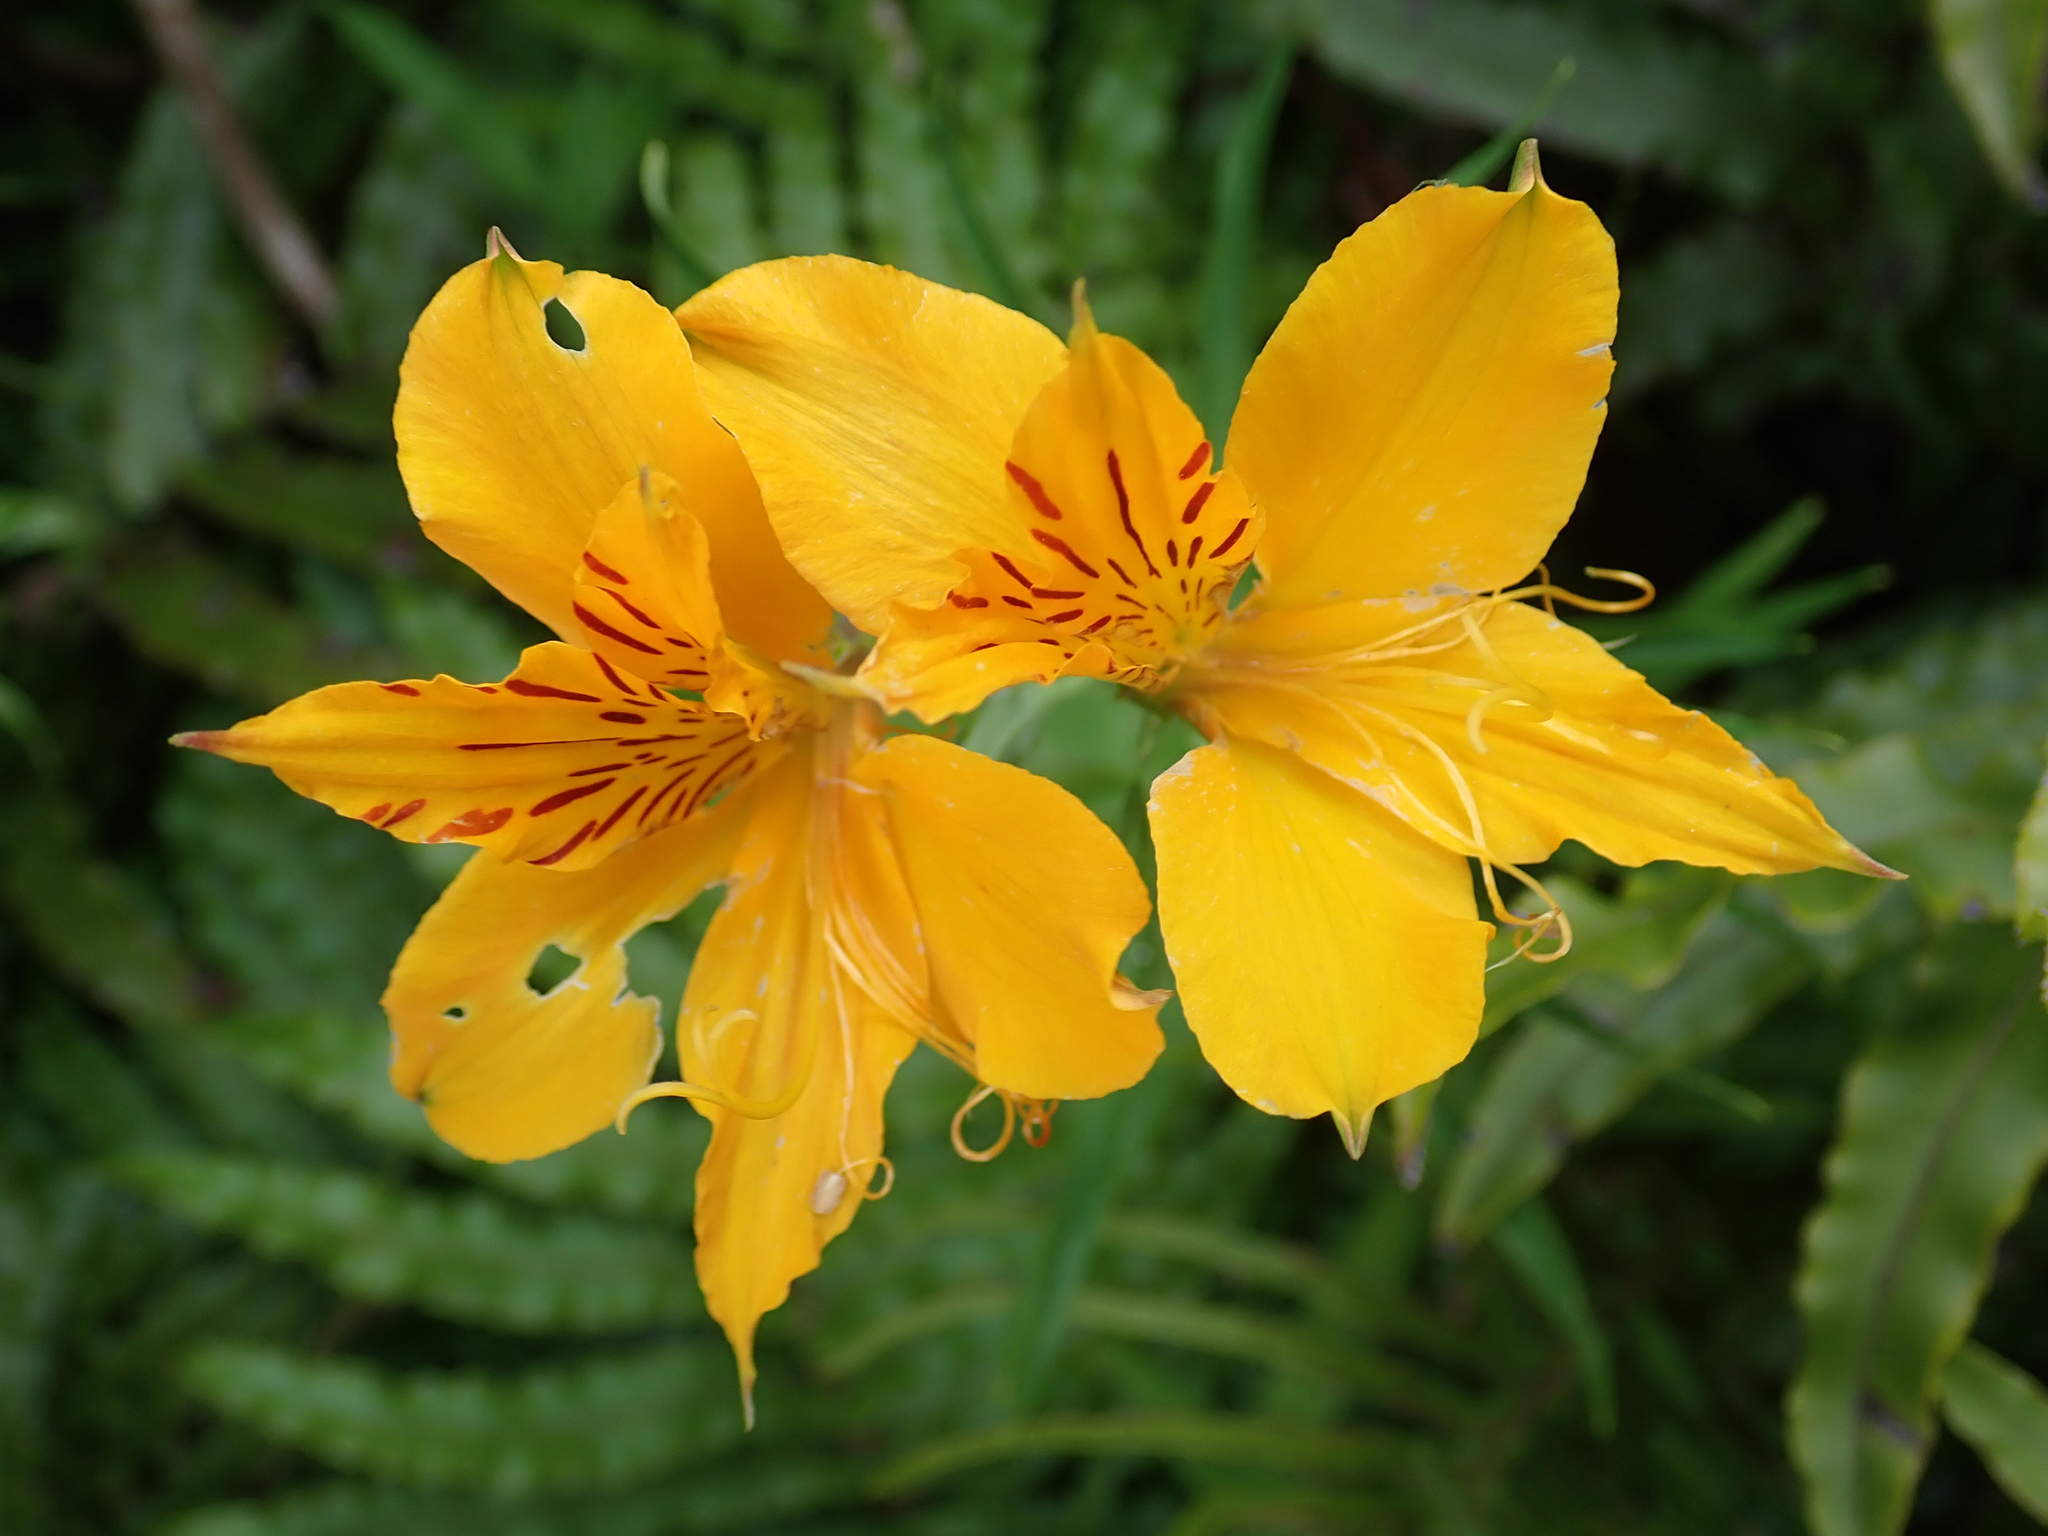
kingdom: Plantae
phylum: Tracheophyta
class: Liliopsida
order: Liliales
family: Alstroemeriaceae
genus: Alstroemeria
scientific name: Alstroemeria aurea
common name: Peruvian lily
